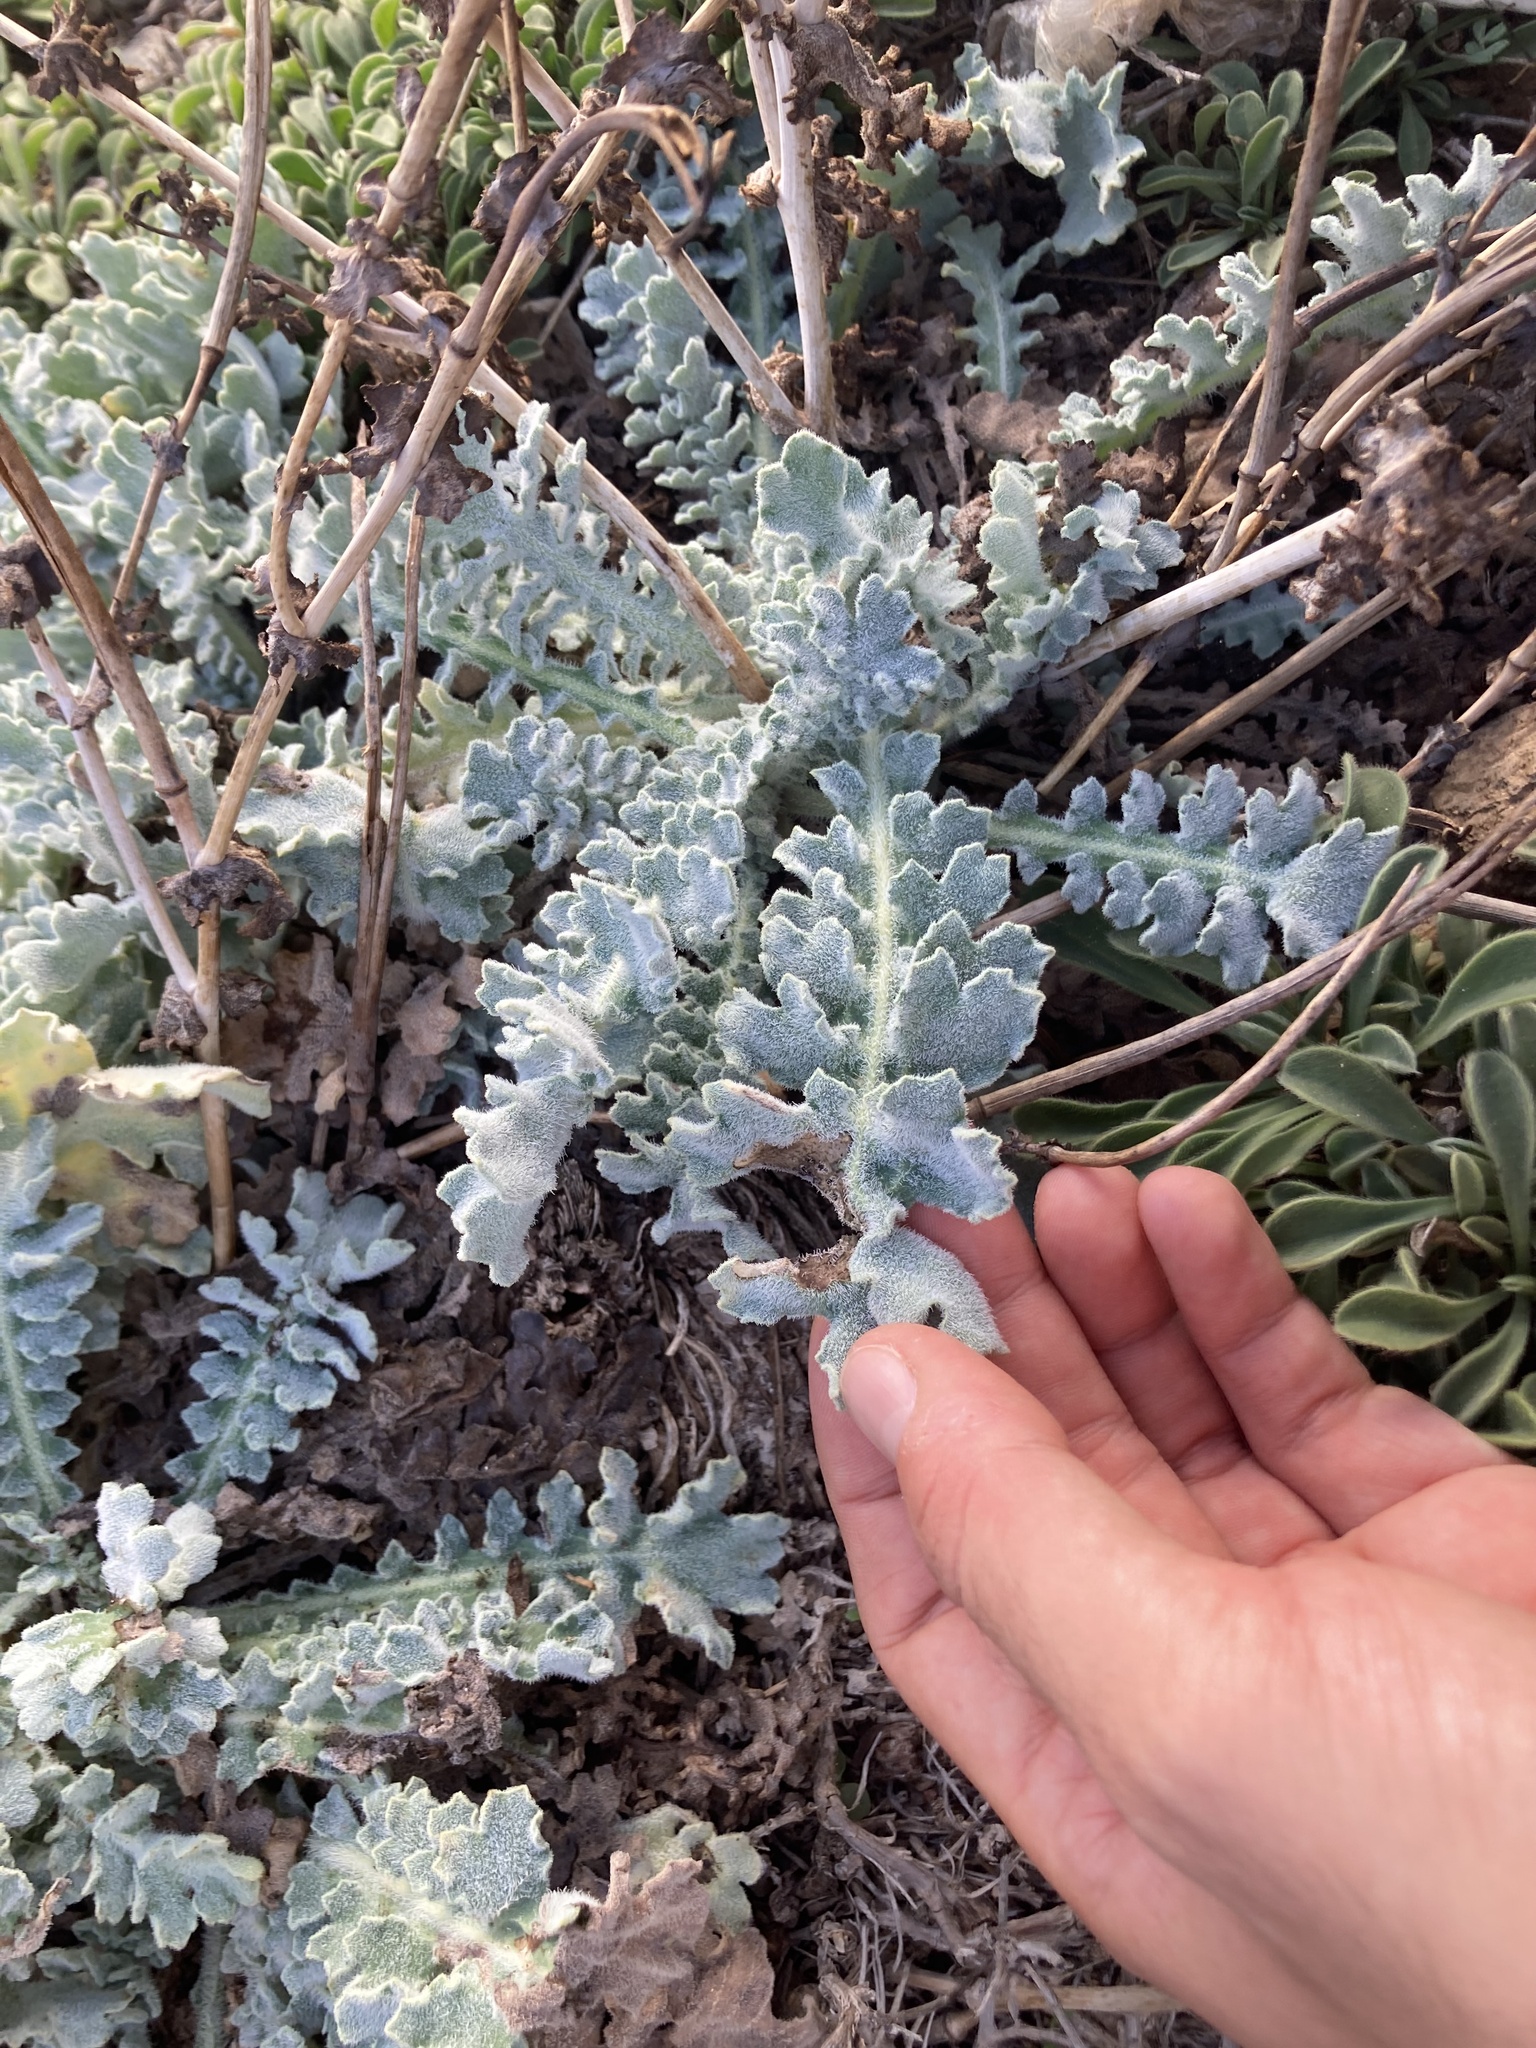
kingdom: Plantae
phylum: Tracheophyta
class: Magnoliopsida
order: Ranunculales
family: Papaveraceae
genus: Glaucium
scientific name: Glaucium flavum
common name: Yellow horned-poppy
